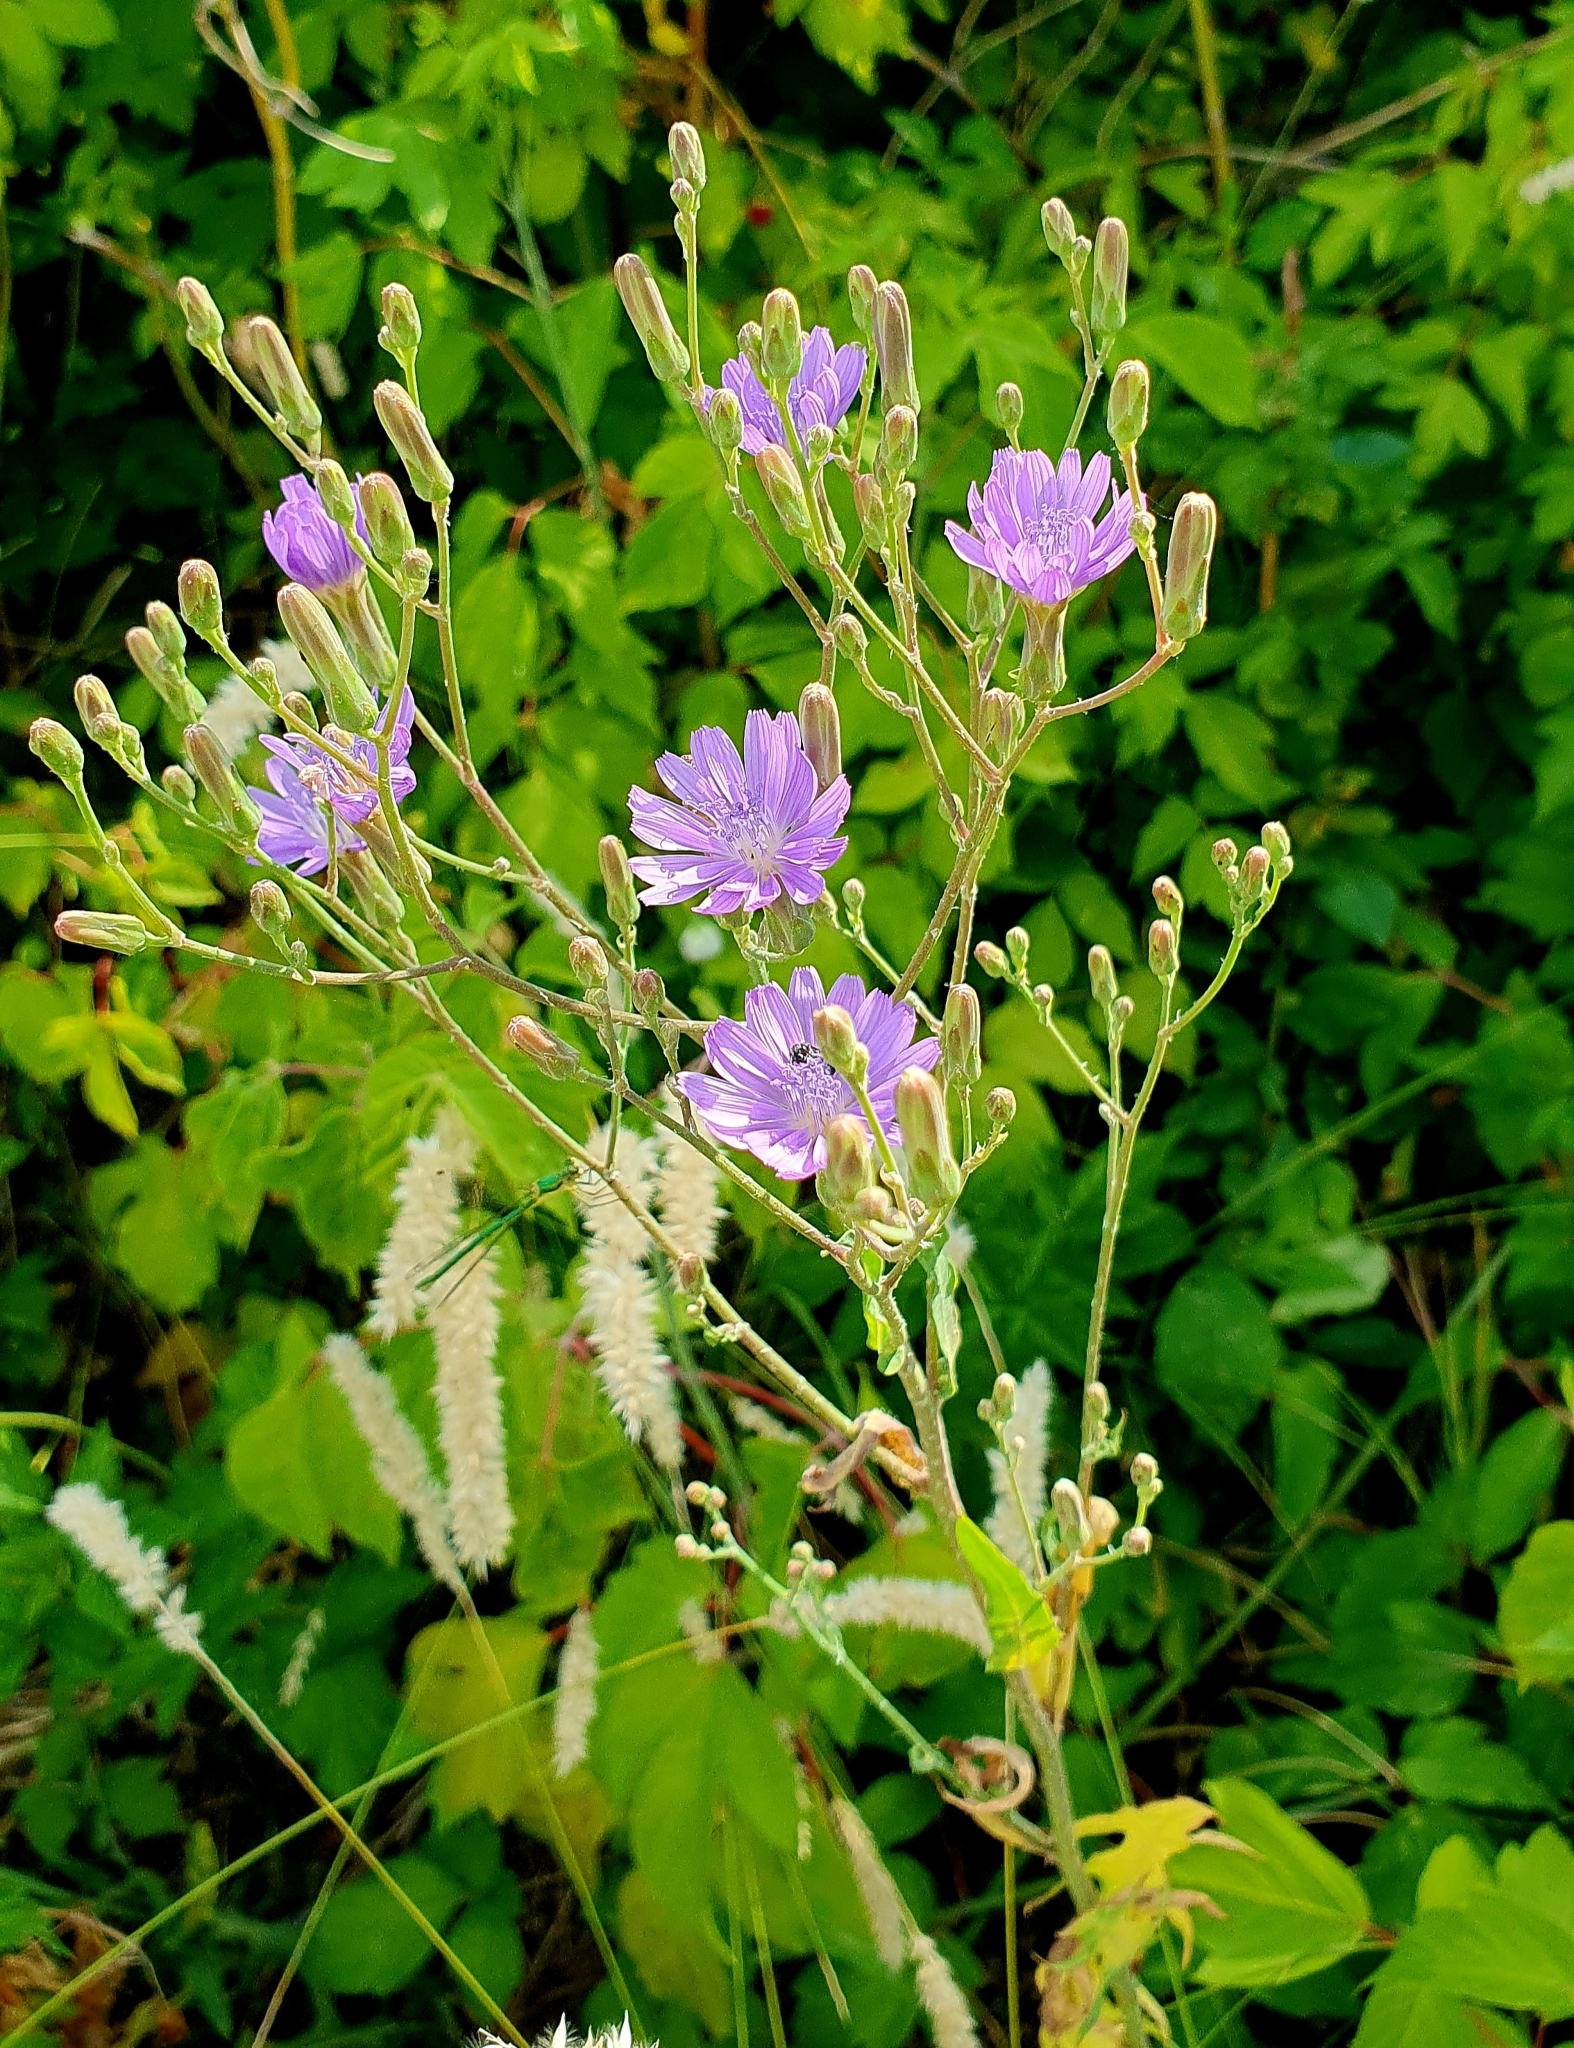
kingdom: Plantae
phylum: Tracheophyta
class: Magnoliopsida
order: Asterales
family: Asteraceae
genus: Lactuca
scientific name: Lactuca tatarica
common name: Blue lettuce
